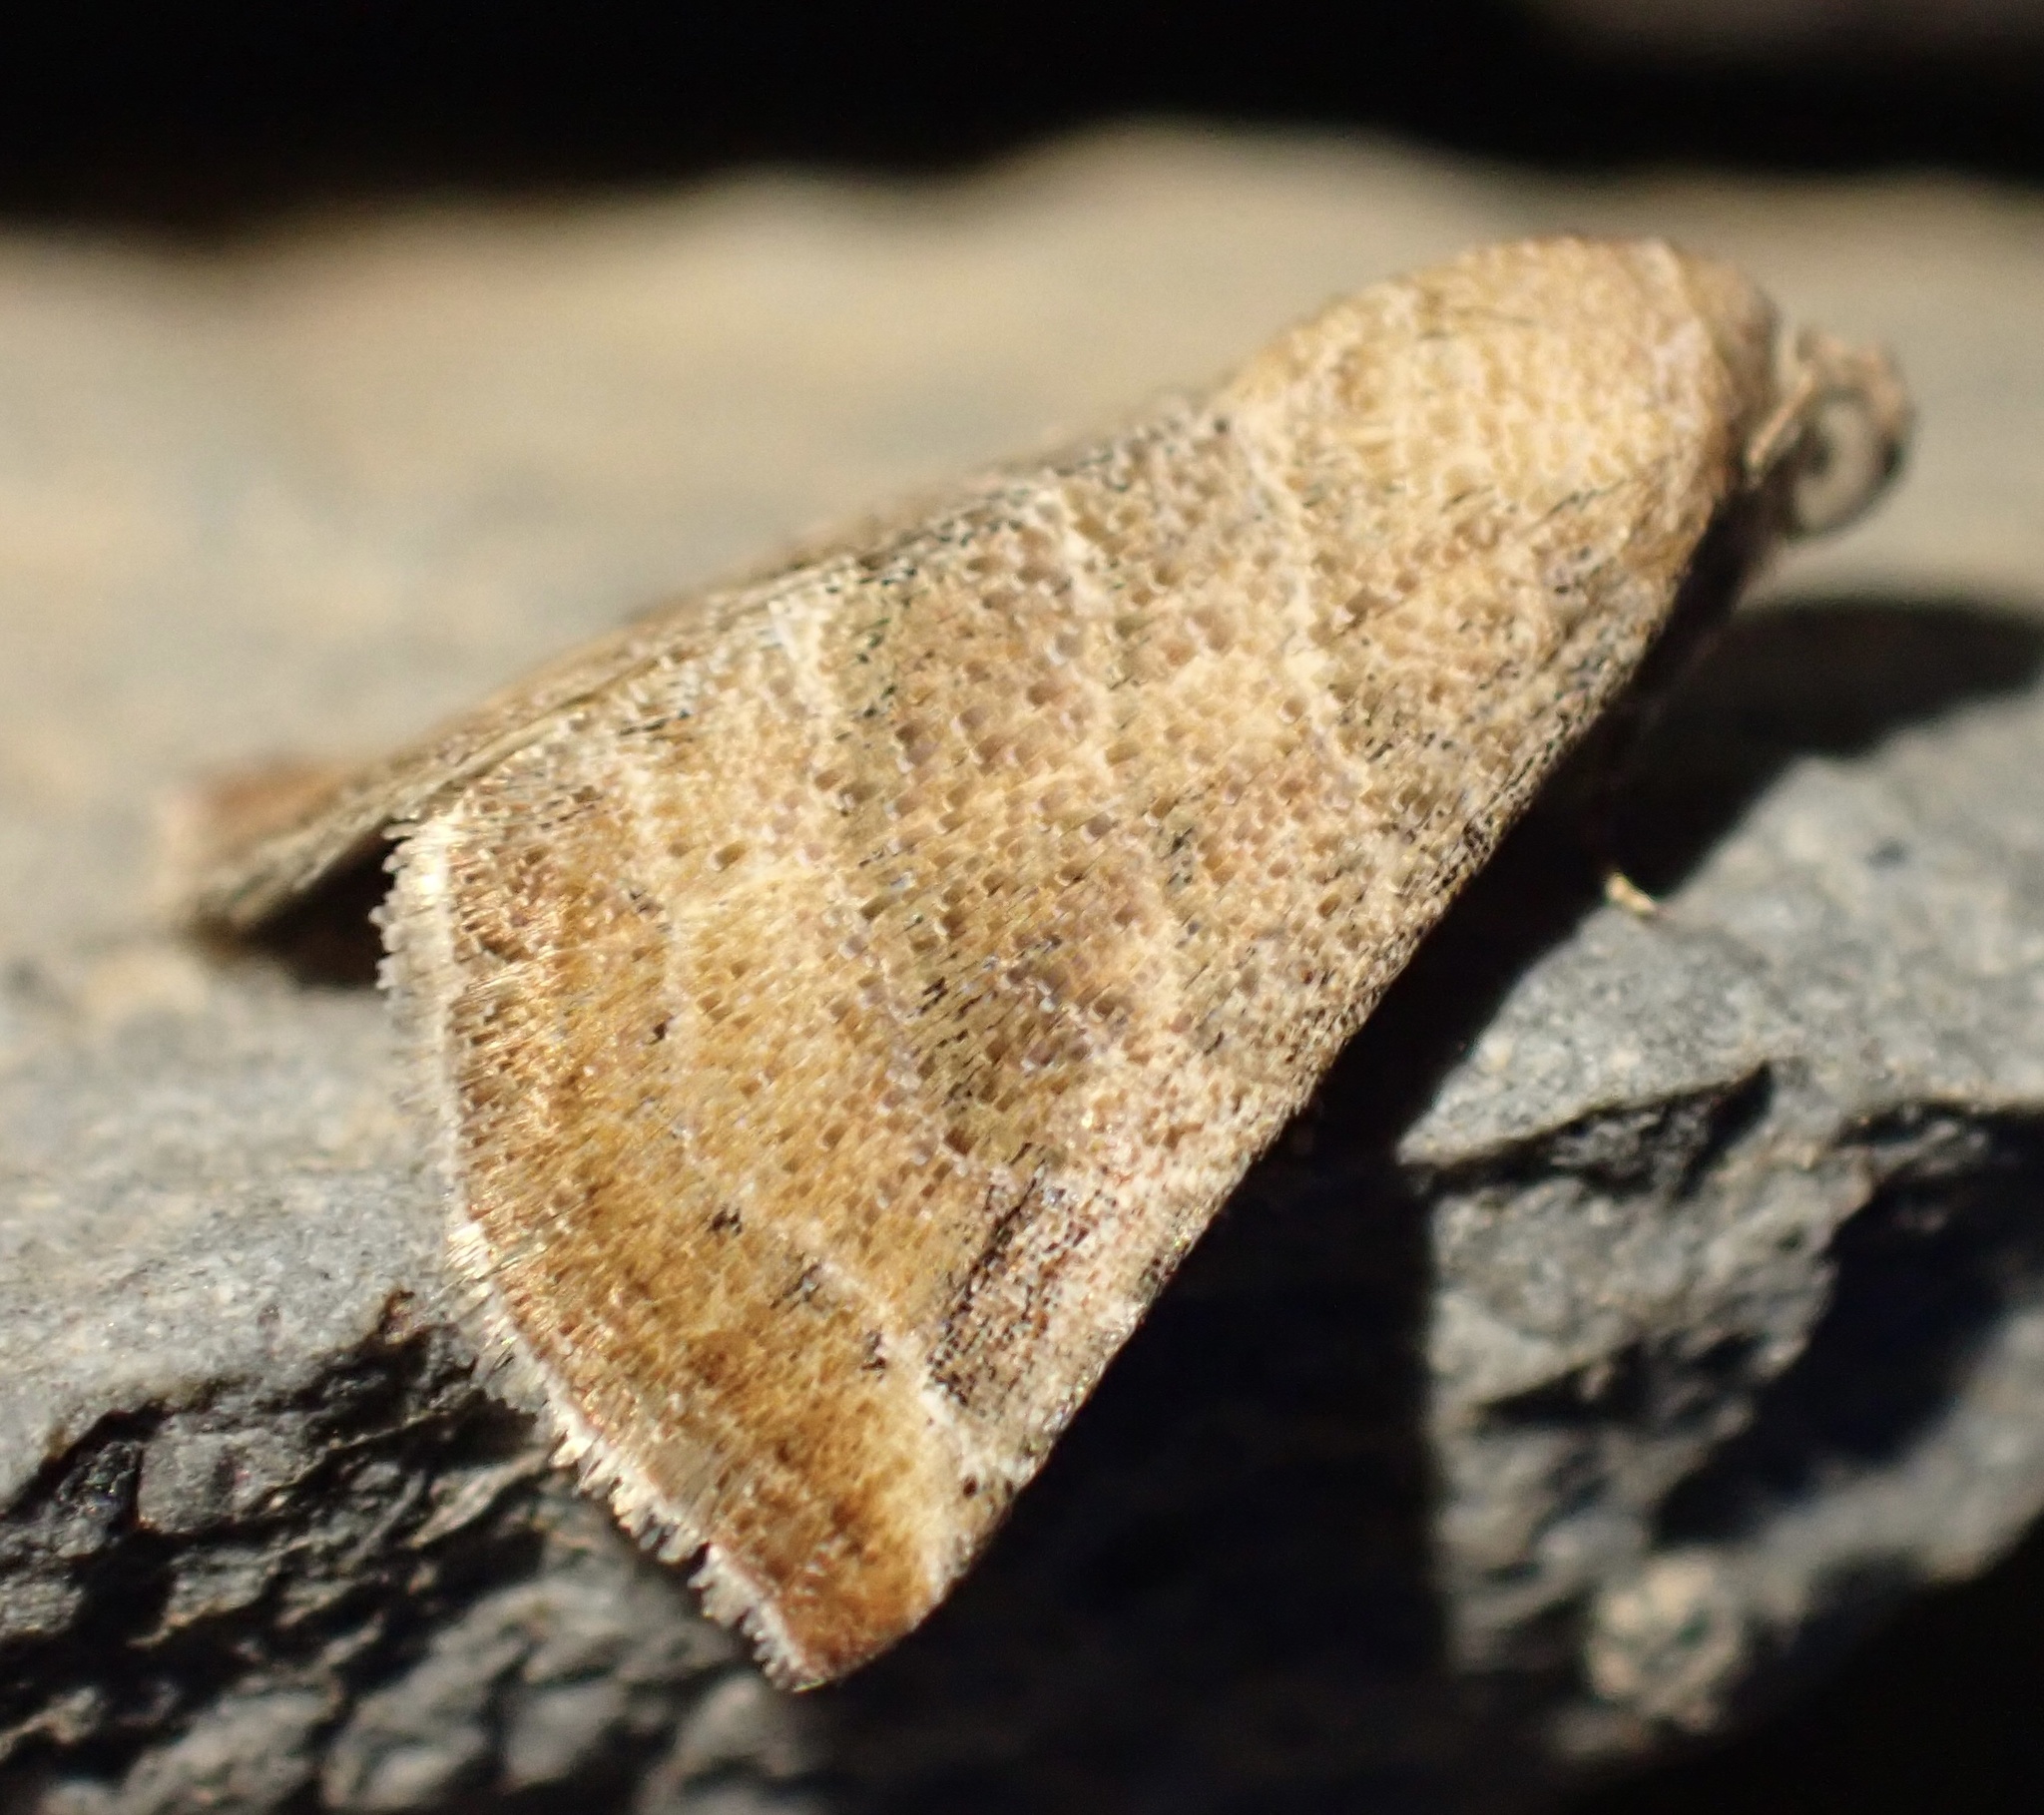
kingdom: Animalia
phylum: Arthropoda
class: Insecta
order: Lepidoptera
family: Noctuidae
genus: Eublemma
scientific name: Eublemma baccatrix
